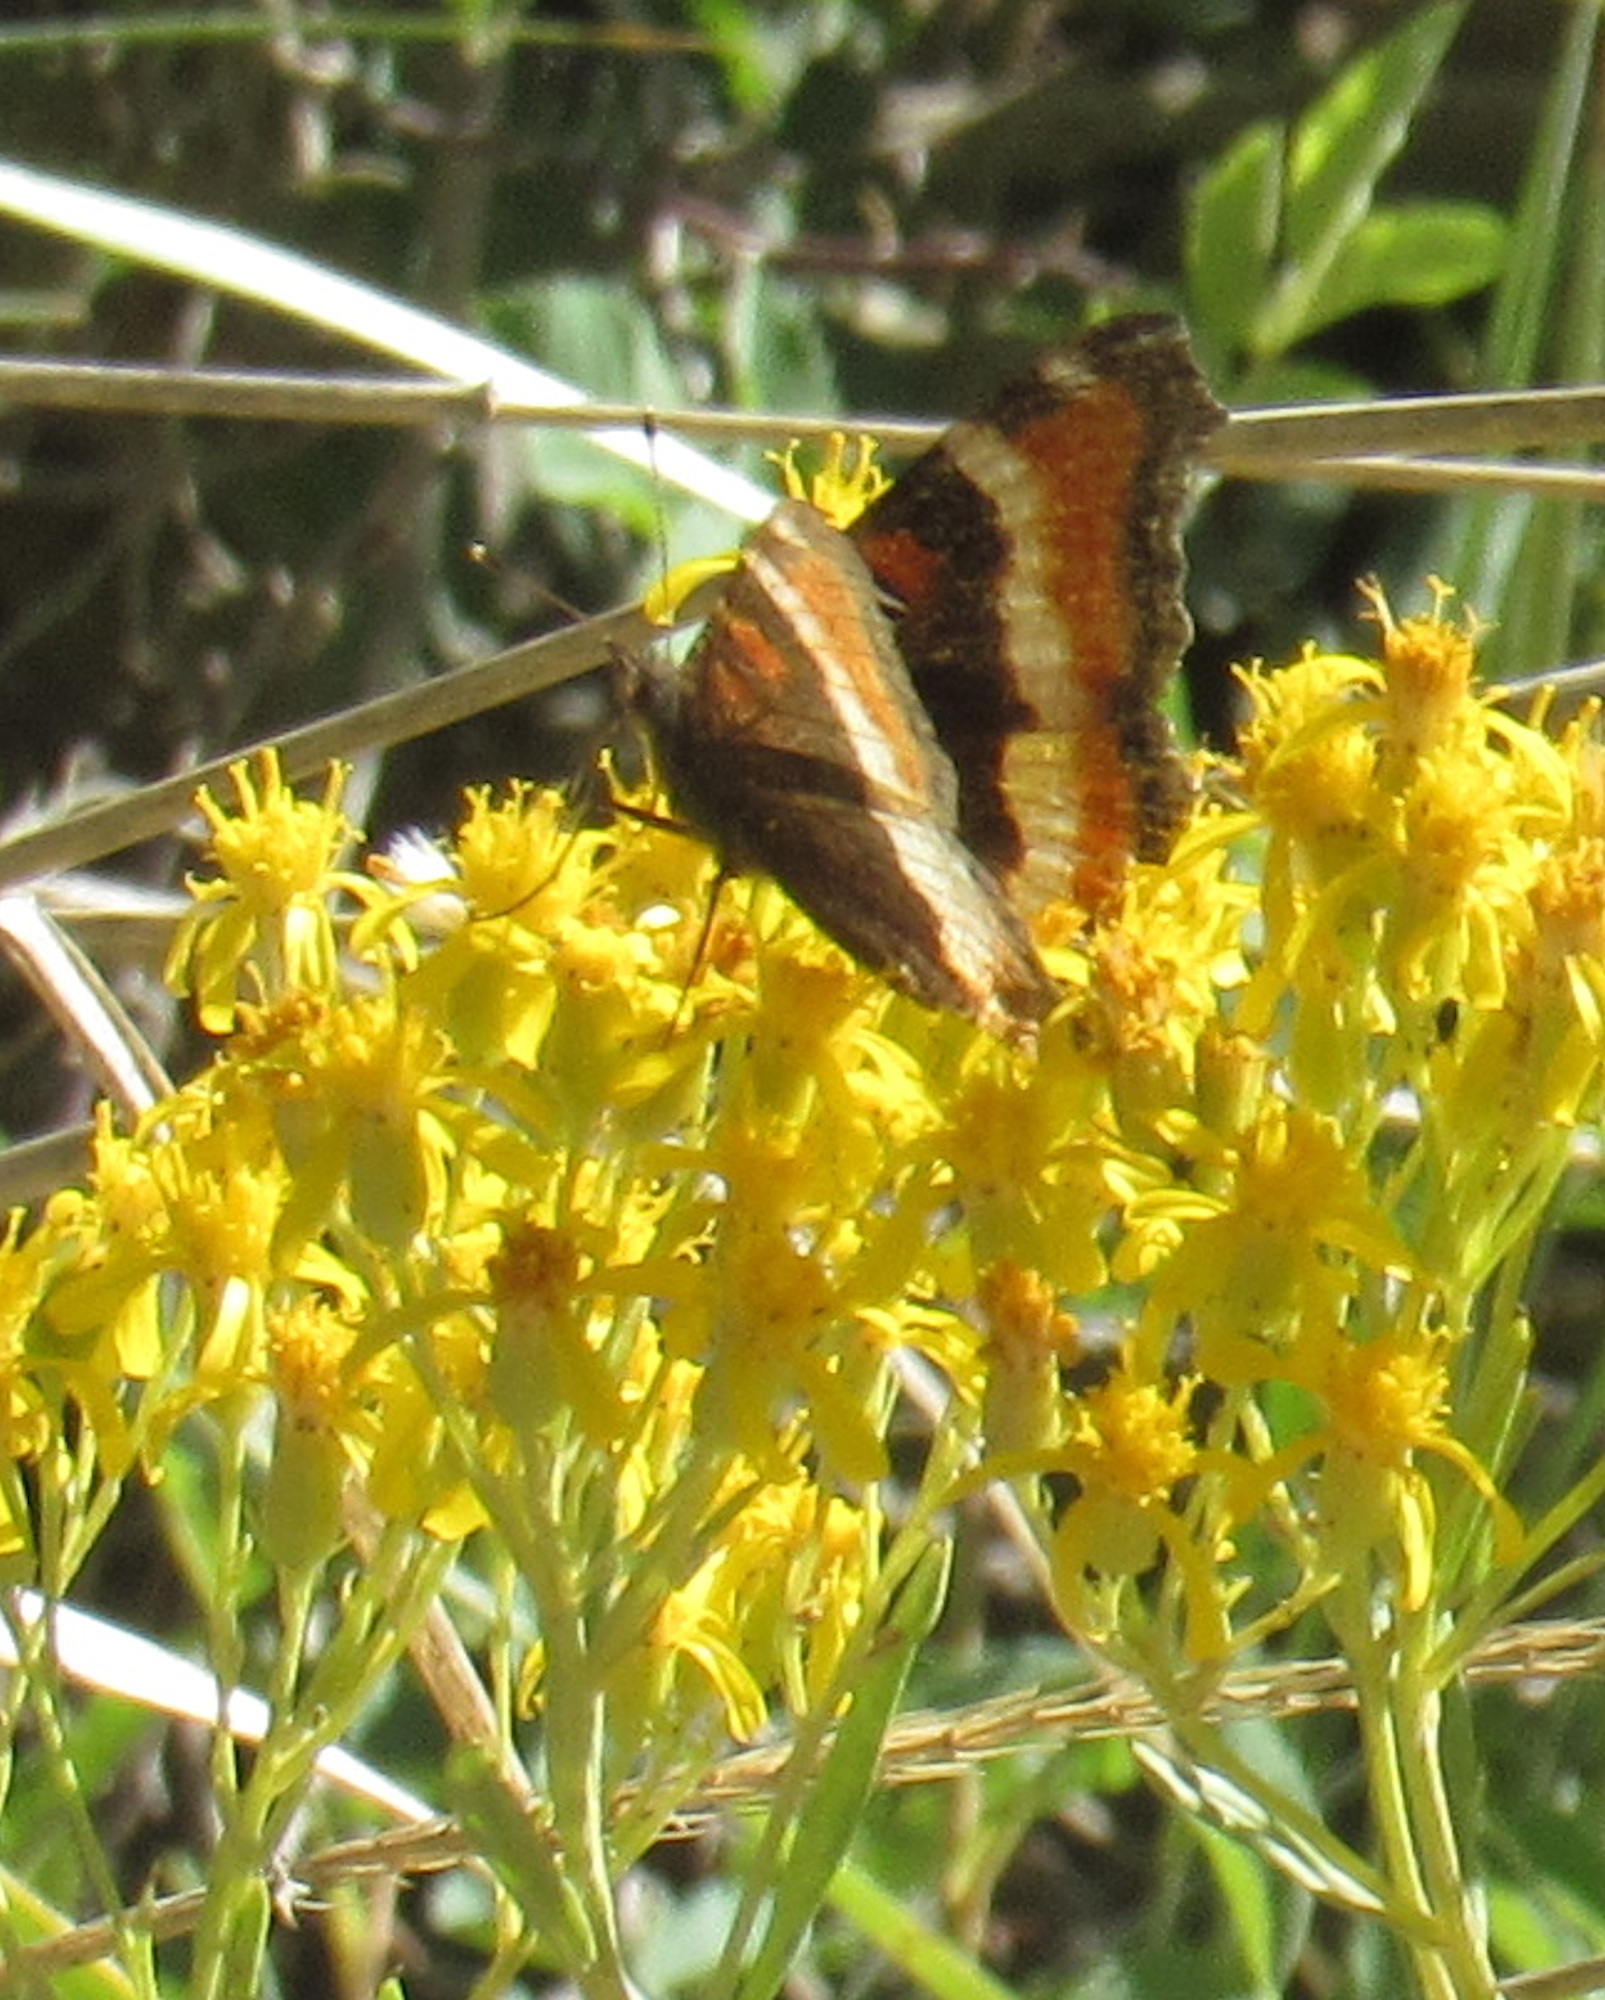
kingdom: Animalia
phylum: Arthropoda
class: Insecta
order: Lepidoptera
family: Nymphalidae
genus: Aglais
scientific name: Aglais milberti
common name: Milbert's tortoiseshell
